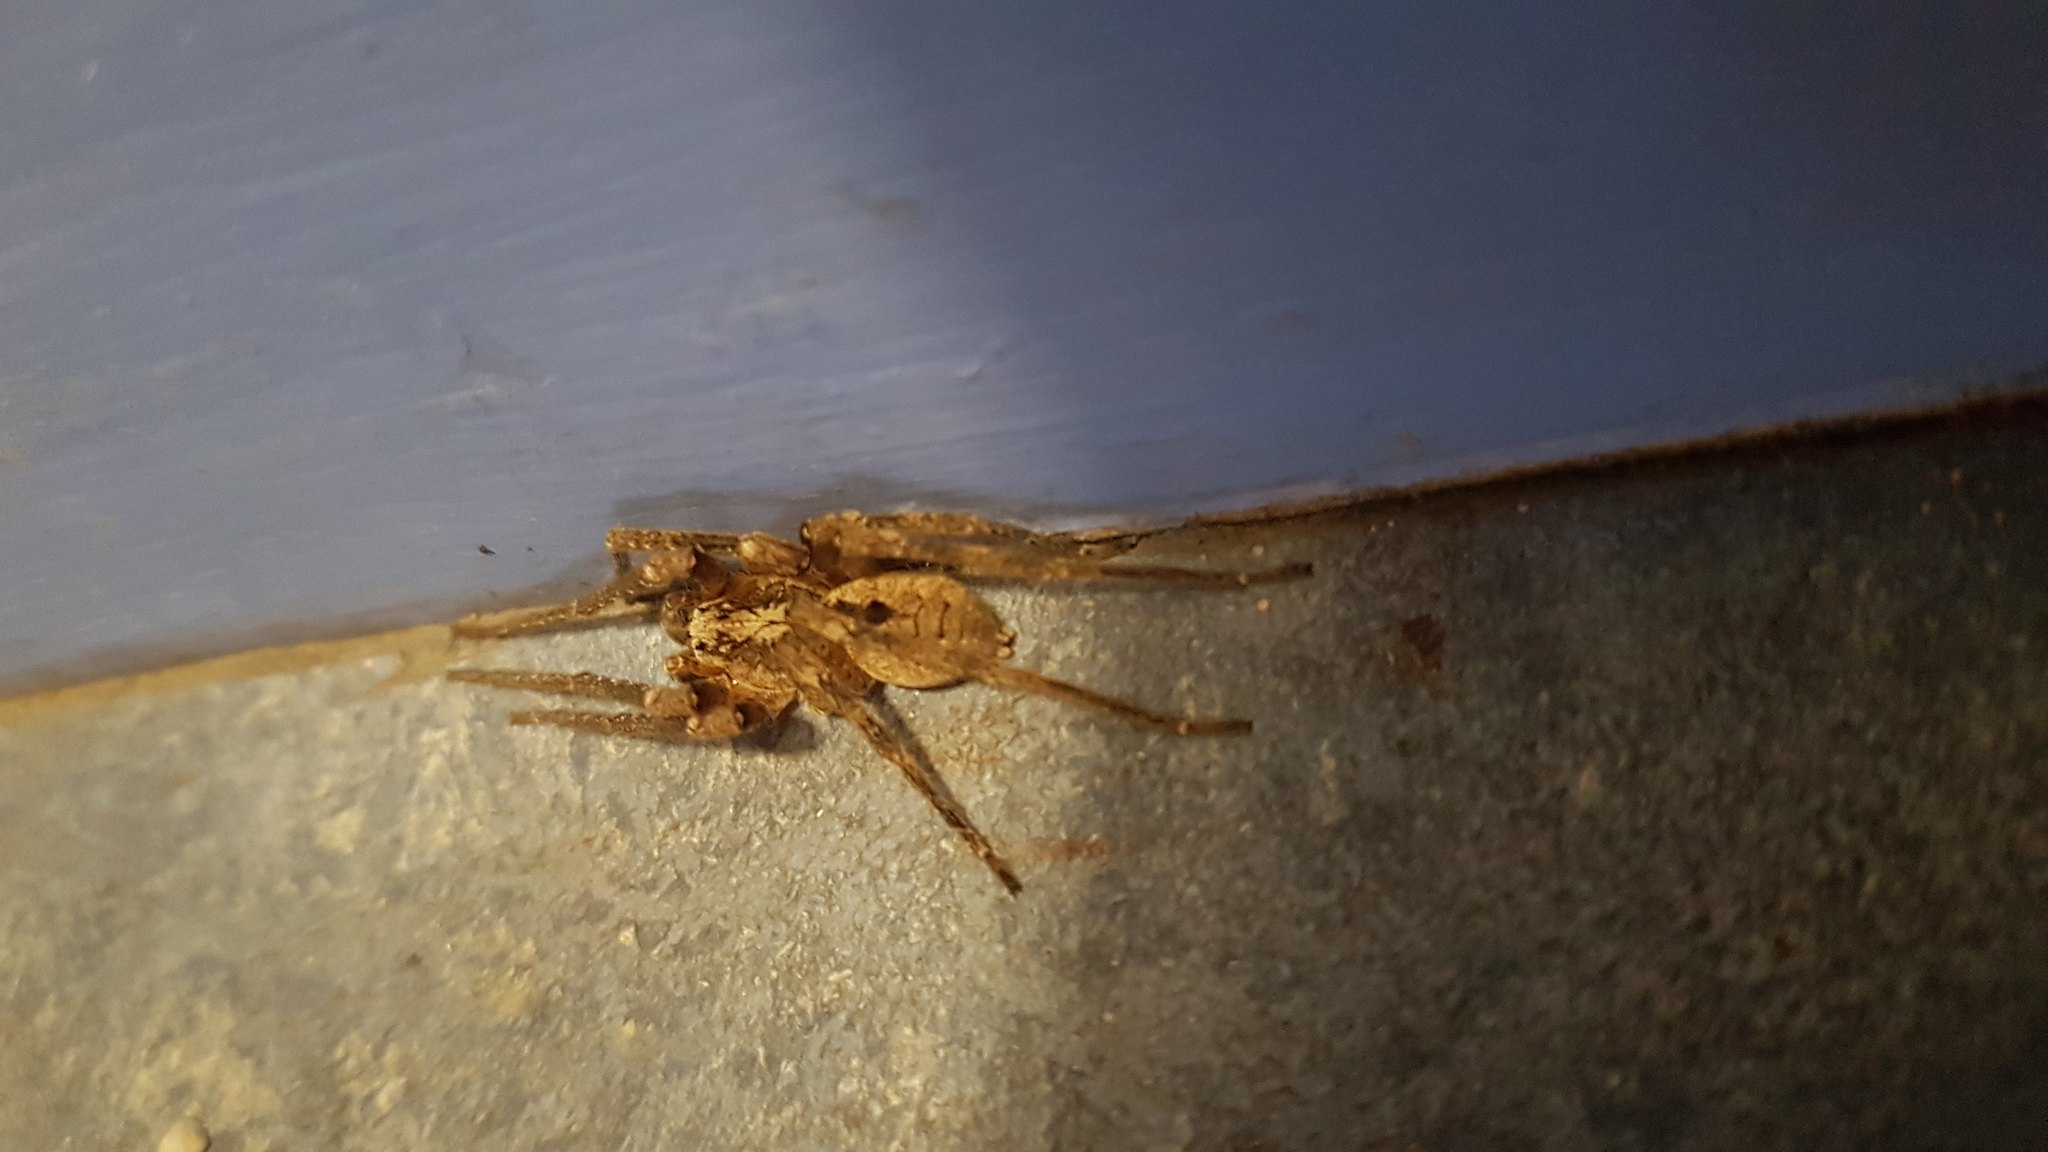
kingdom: Animalia
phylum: Arthropoda
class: Arachnida
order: Araneae
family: Zoropsidae
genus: Zoropsis
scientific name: Zoropsis spinimana
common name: Zoropsid spider
